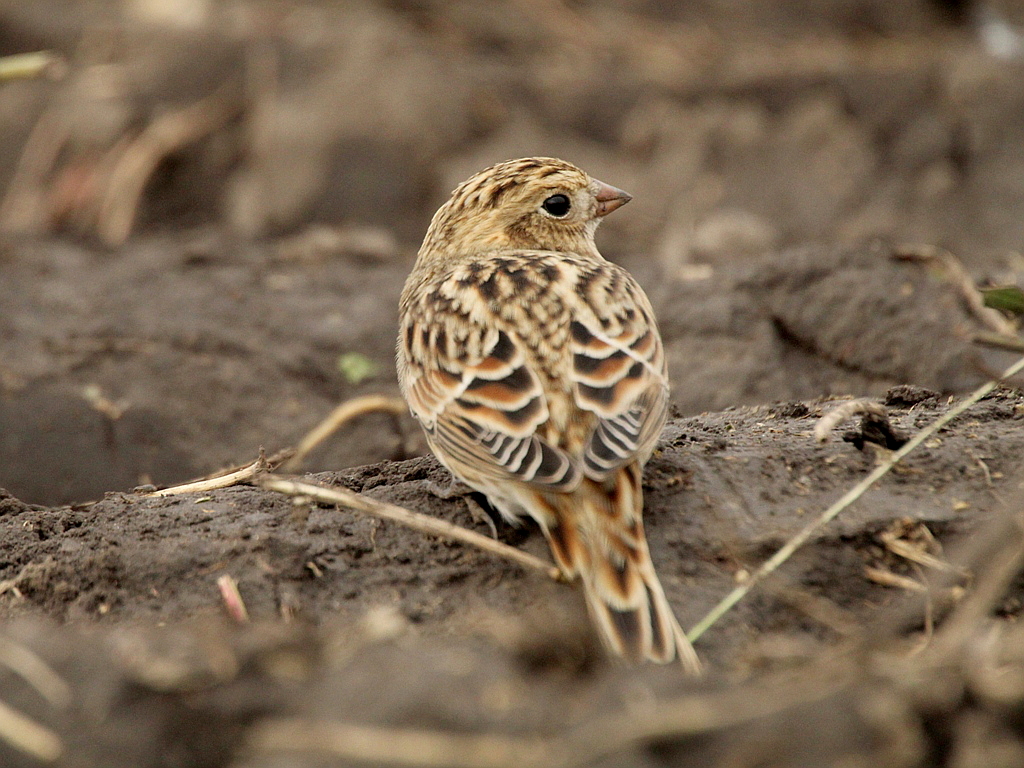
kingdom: Animalia
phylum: Chordata
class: Aves
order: Passeriformes
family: Calcariidae
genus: Calcarius
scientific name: Calcarius lapponicus
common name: Lapland longspur
